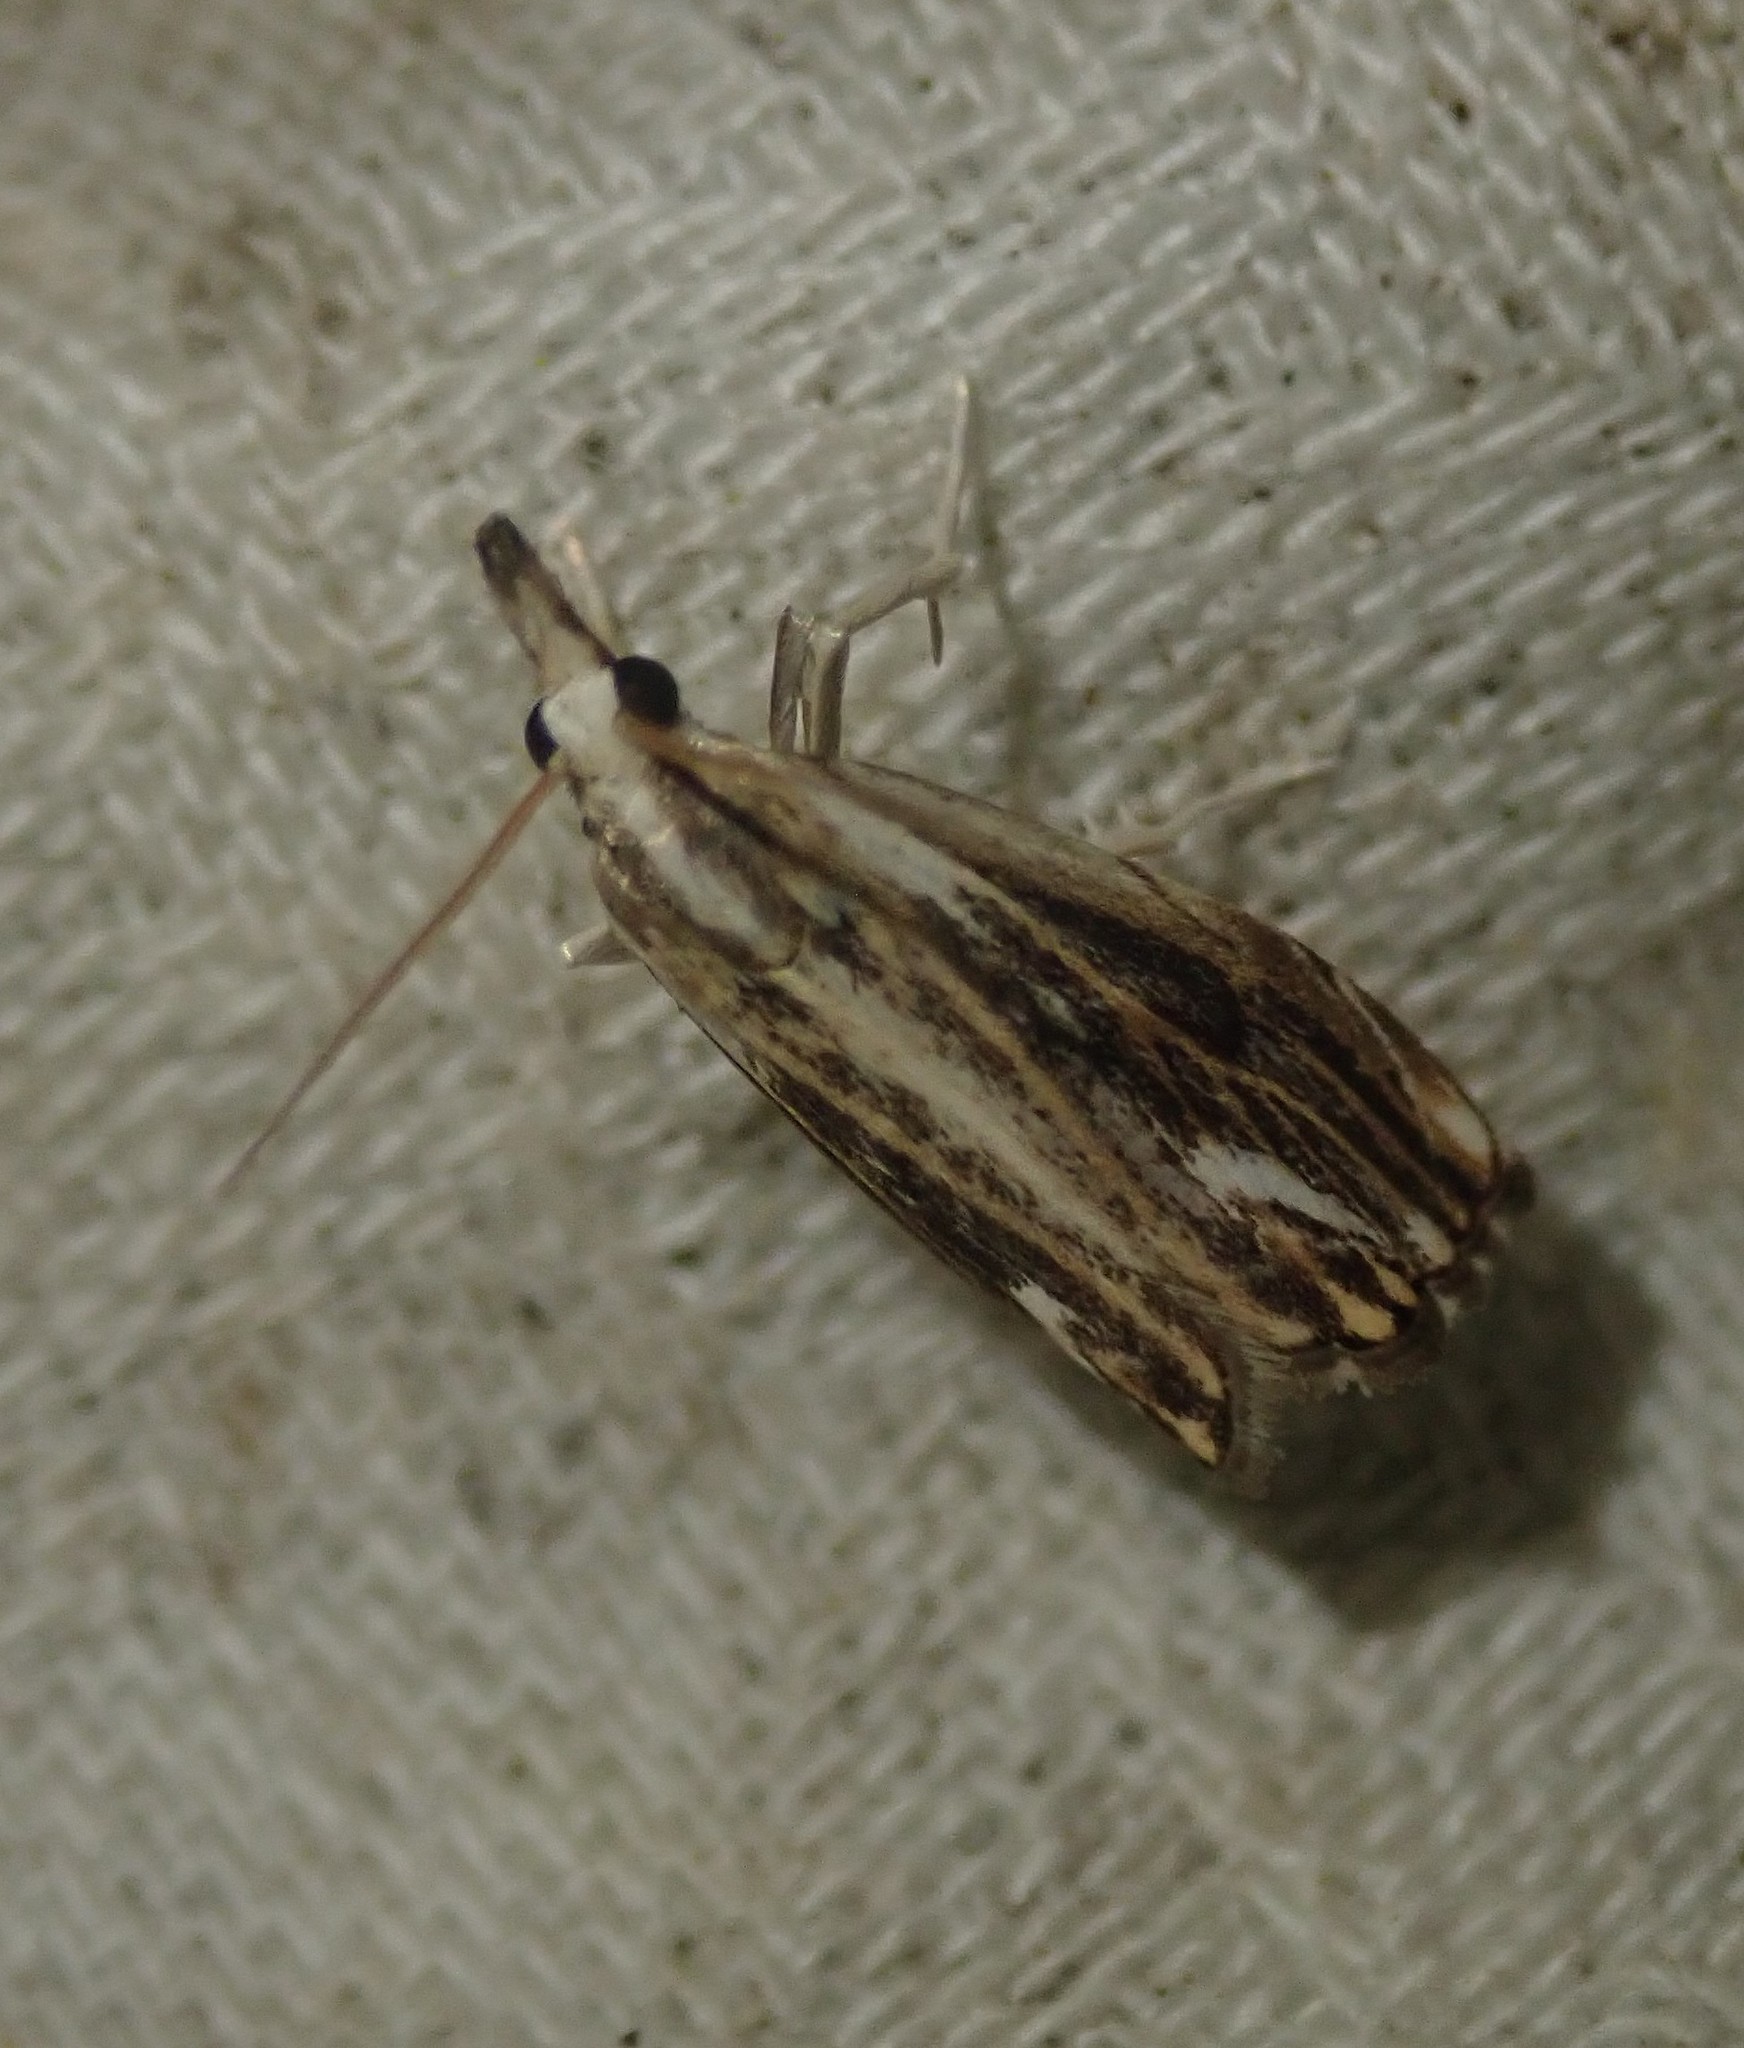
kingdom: Animalia
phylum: Arthropoda
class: Insecta
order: Lepidoptera
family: Crambidae
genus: Catoptria
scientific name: Catoptria verellus
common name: Marbled grass-veneer
